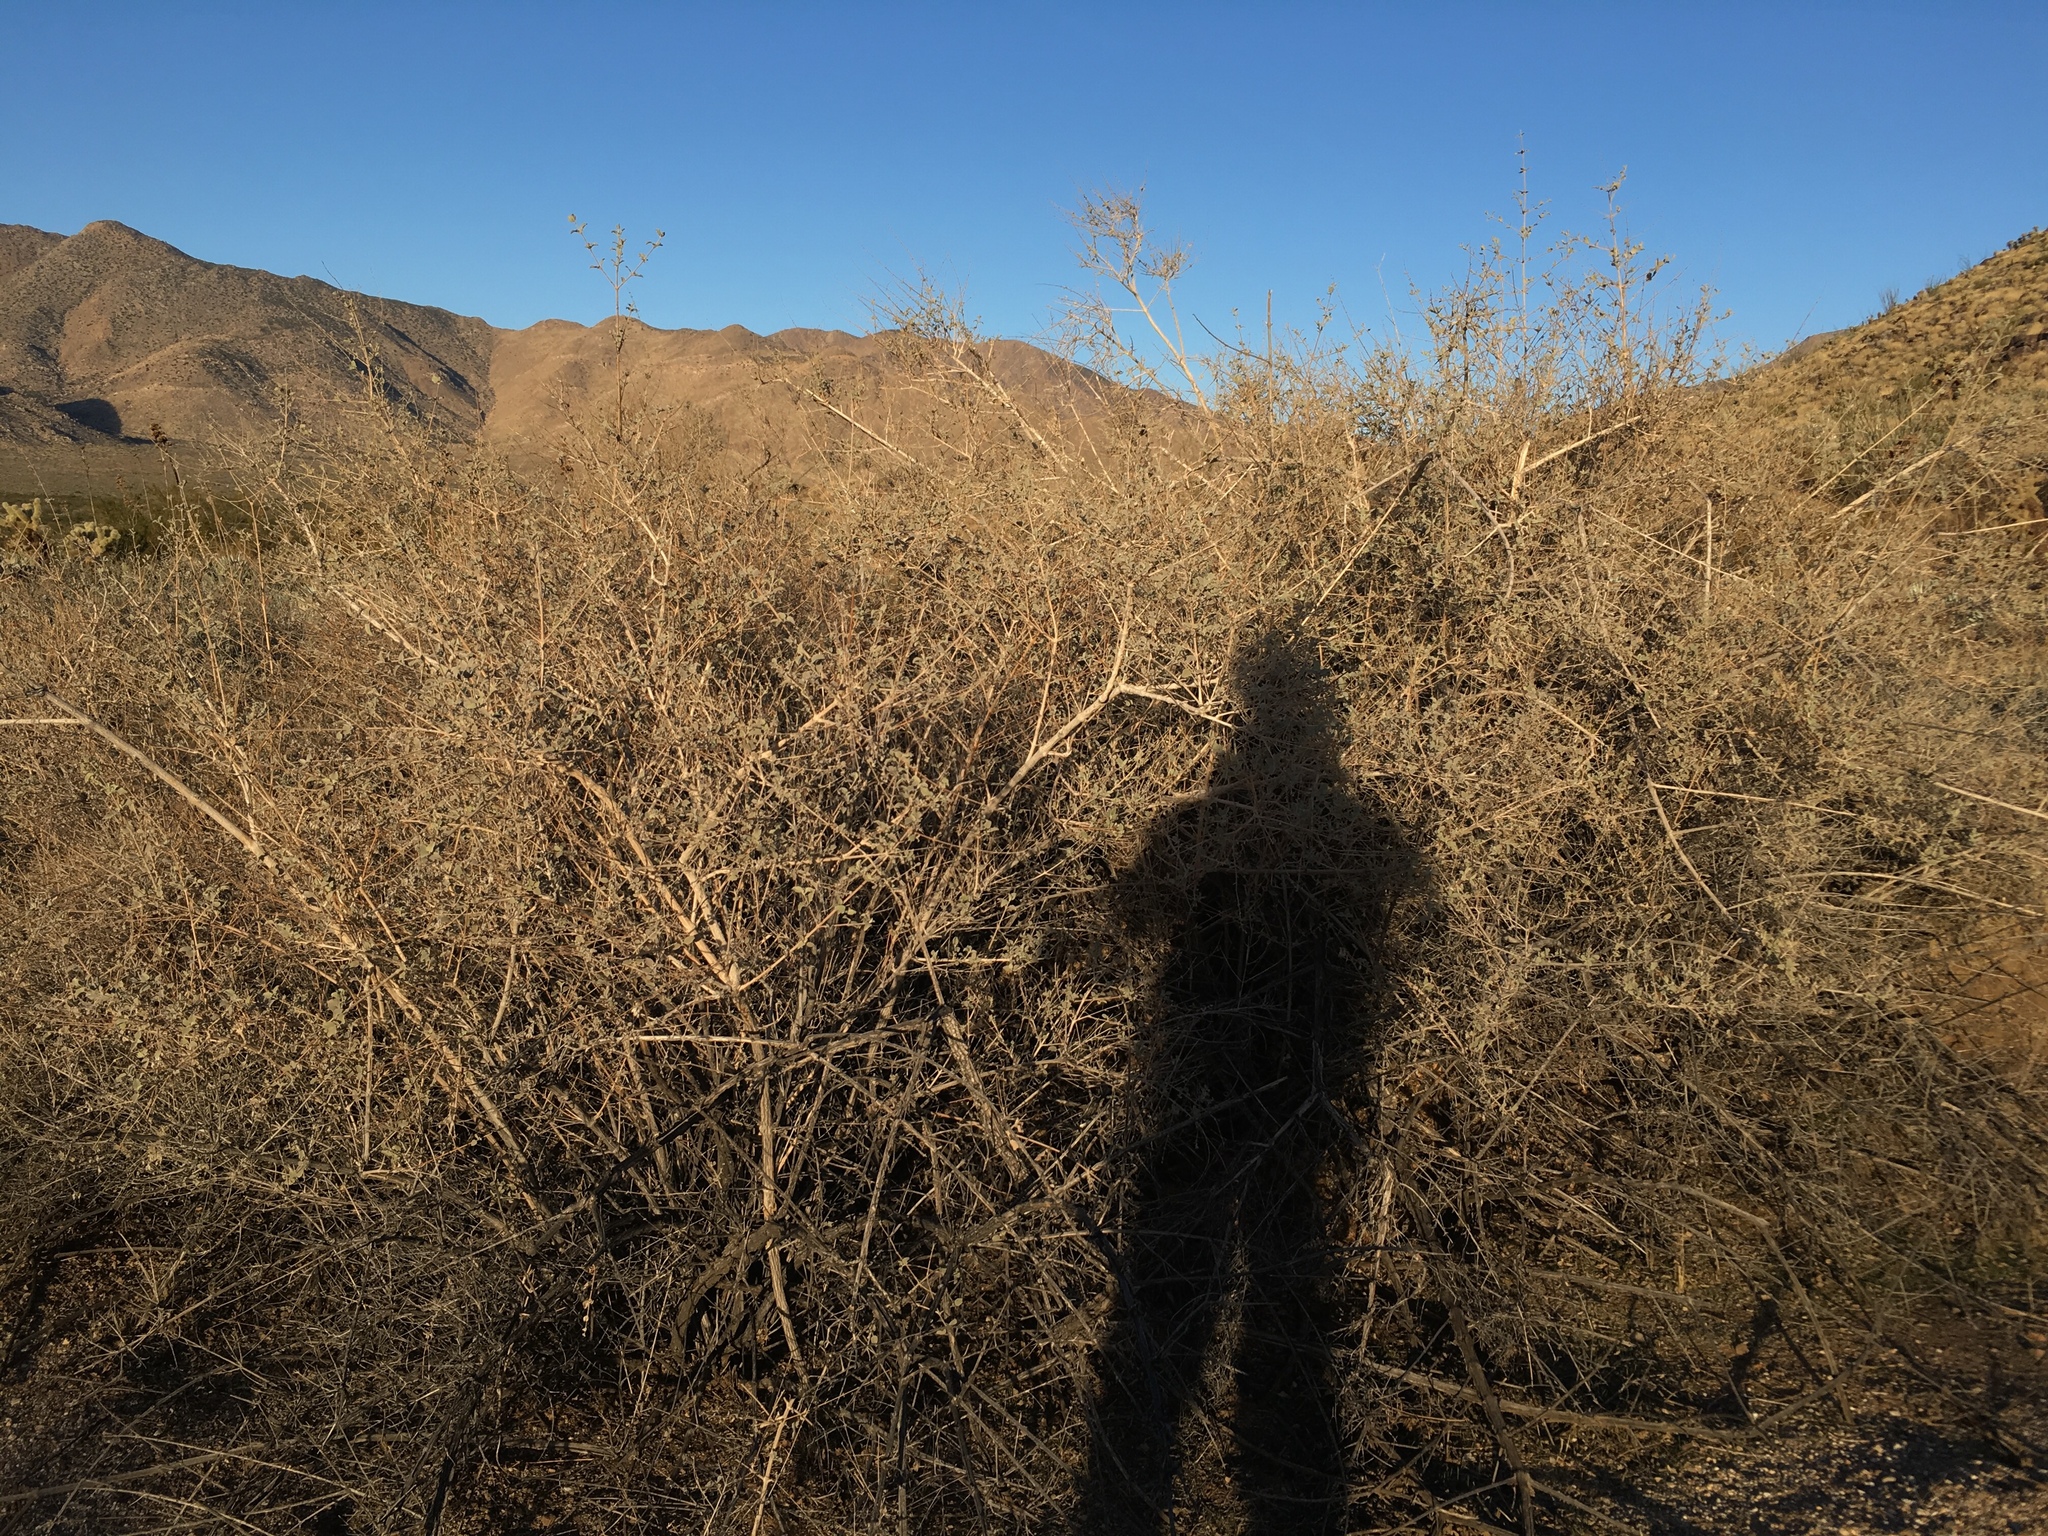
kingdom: Plantae
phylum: Tracheophyta
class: Magnoliopsida
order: Lamiales
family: Lamiaceae
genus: Condea
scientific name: Condea emoryi
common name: Chia
